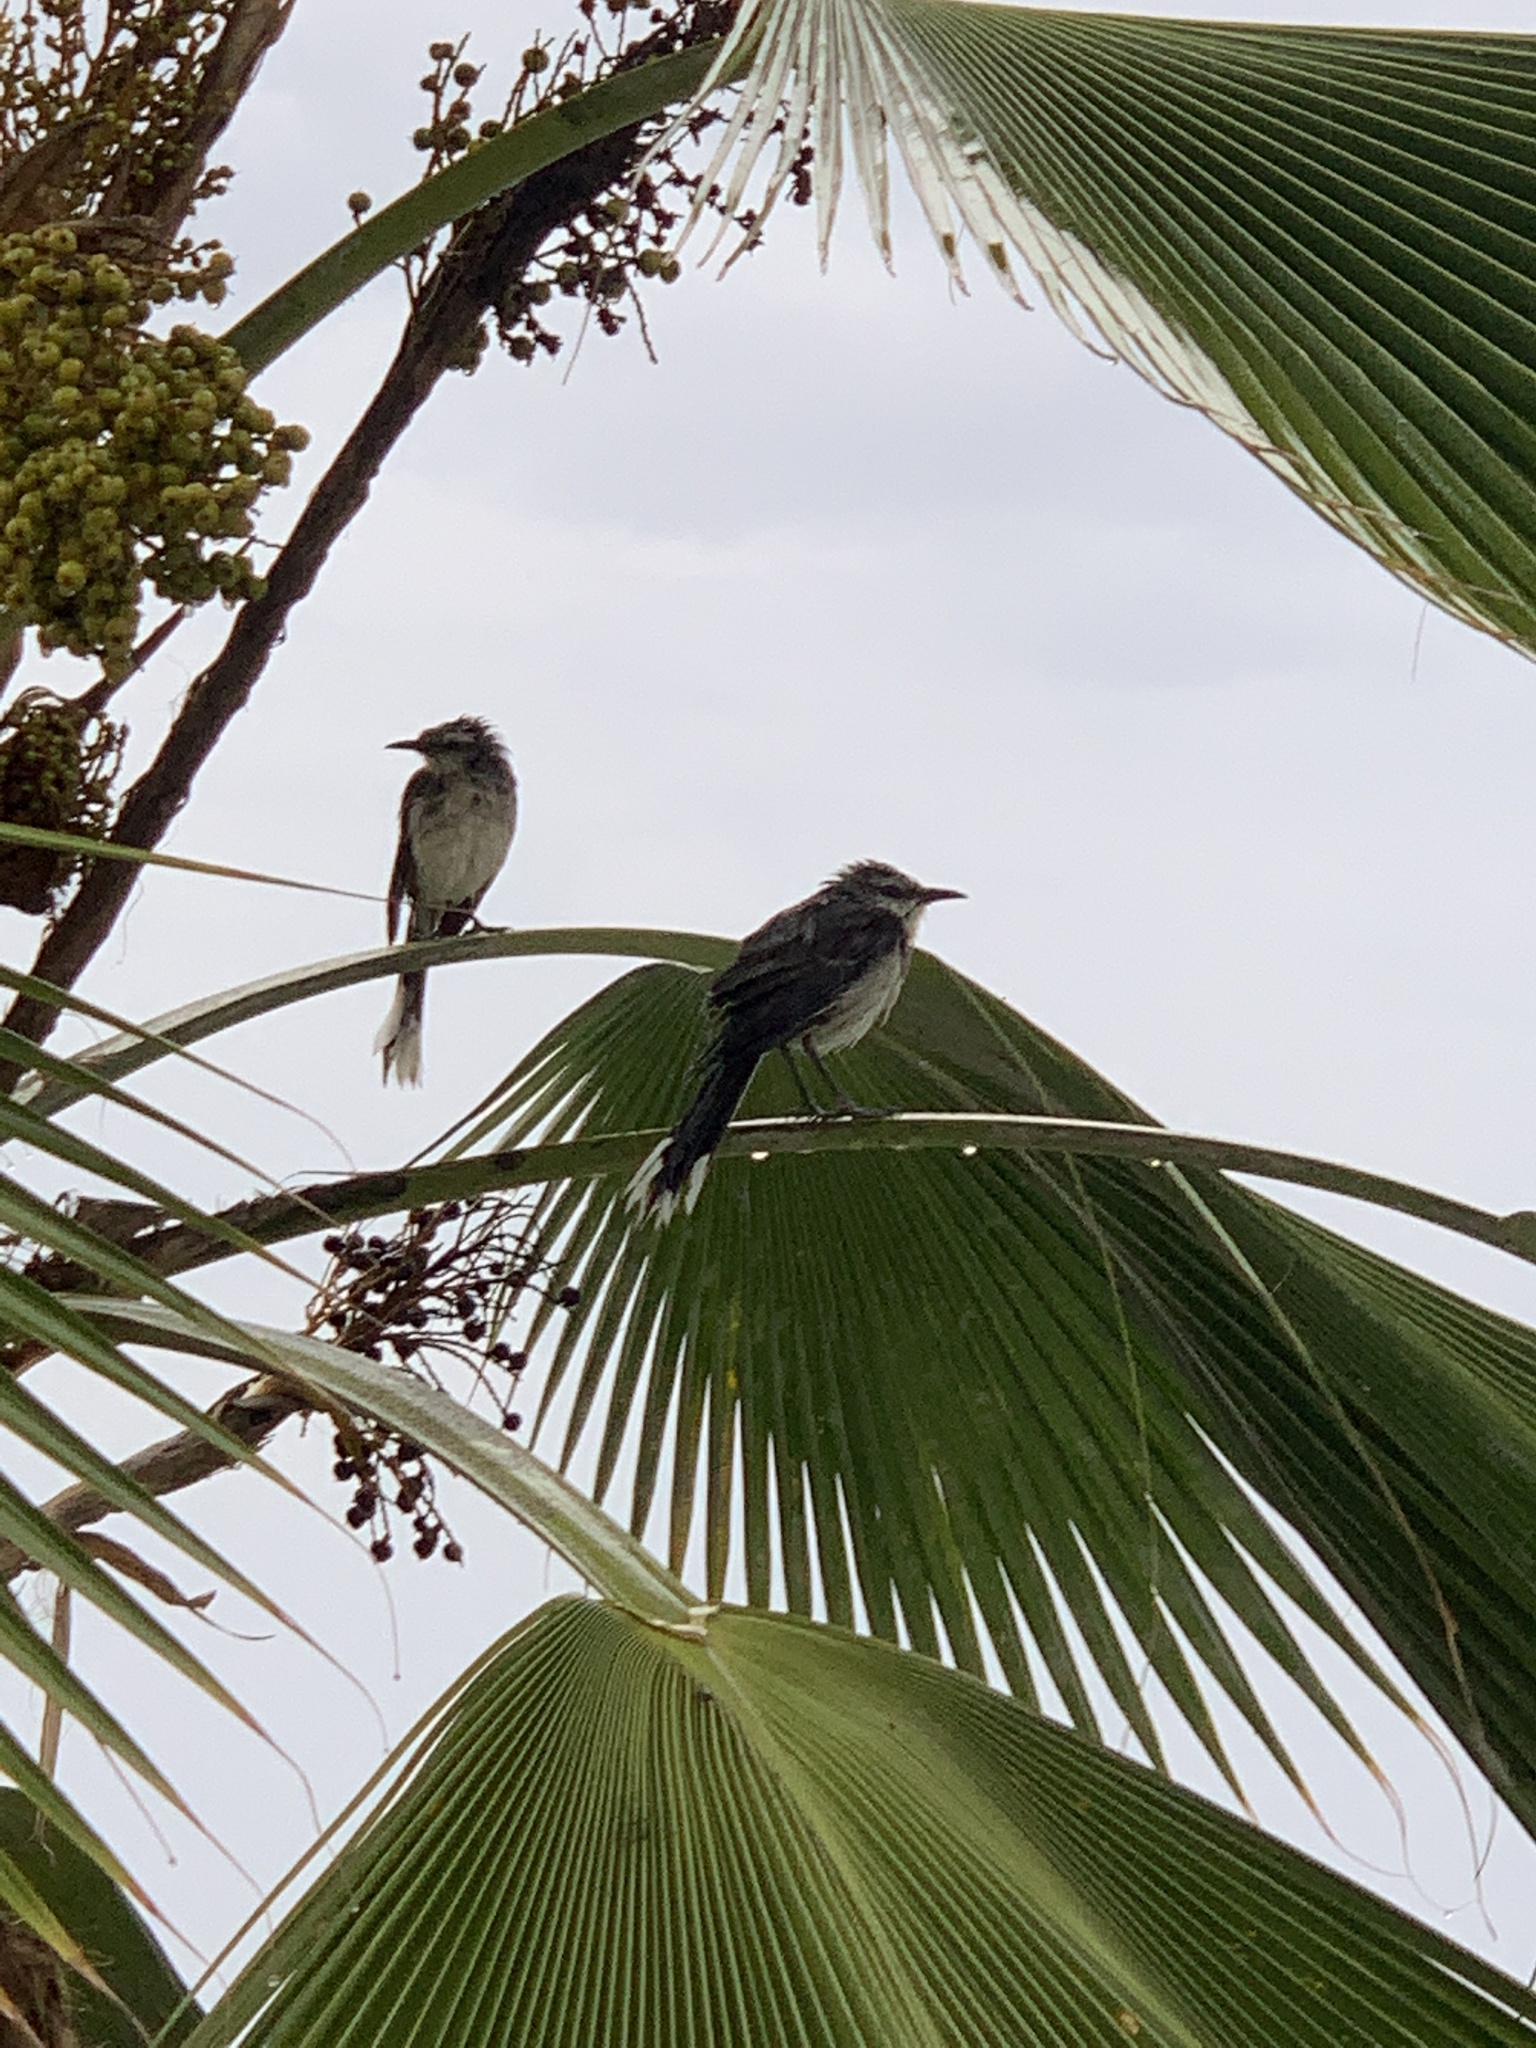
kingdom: Animalia
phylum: Chordata
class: Aves
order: Passeriformes
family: Mimidae
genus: Mimus
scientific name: Mimus gilvus
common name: Tropical mockingbird
